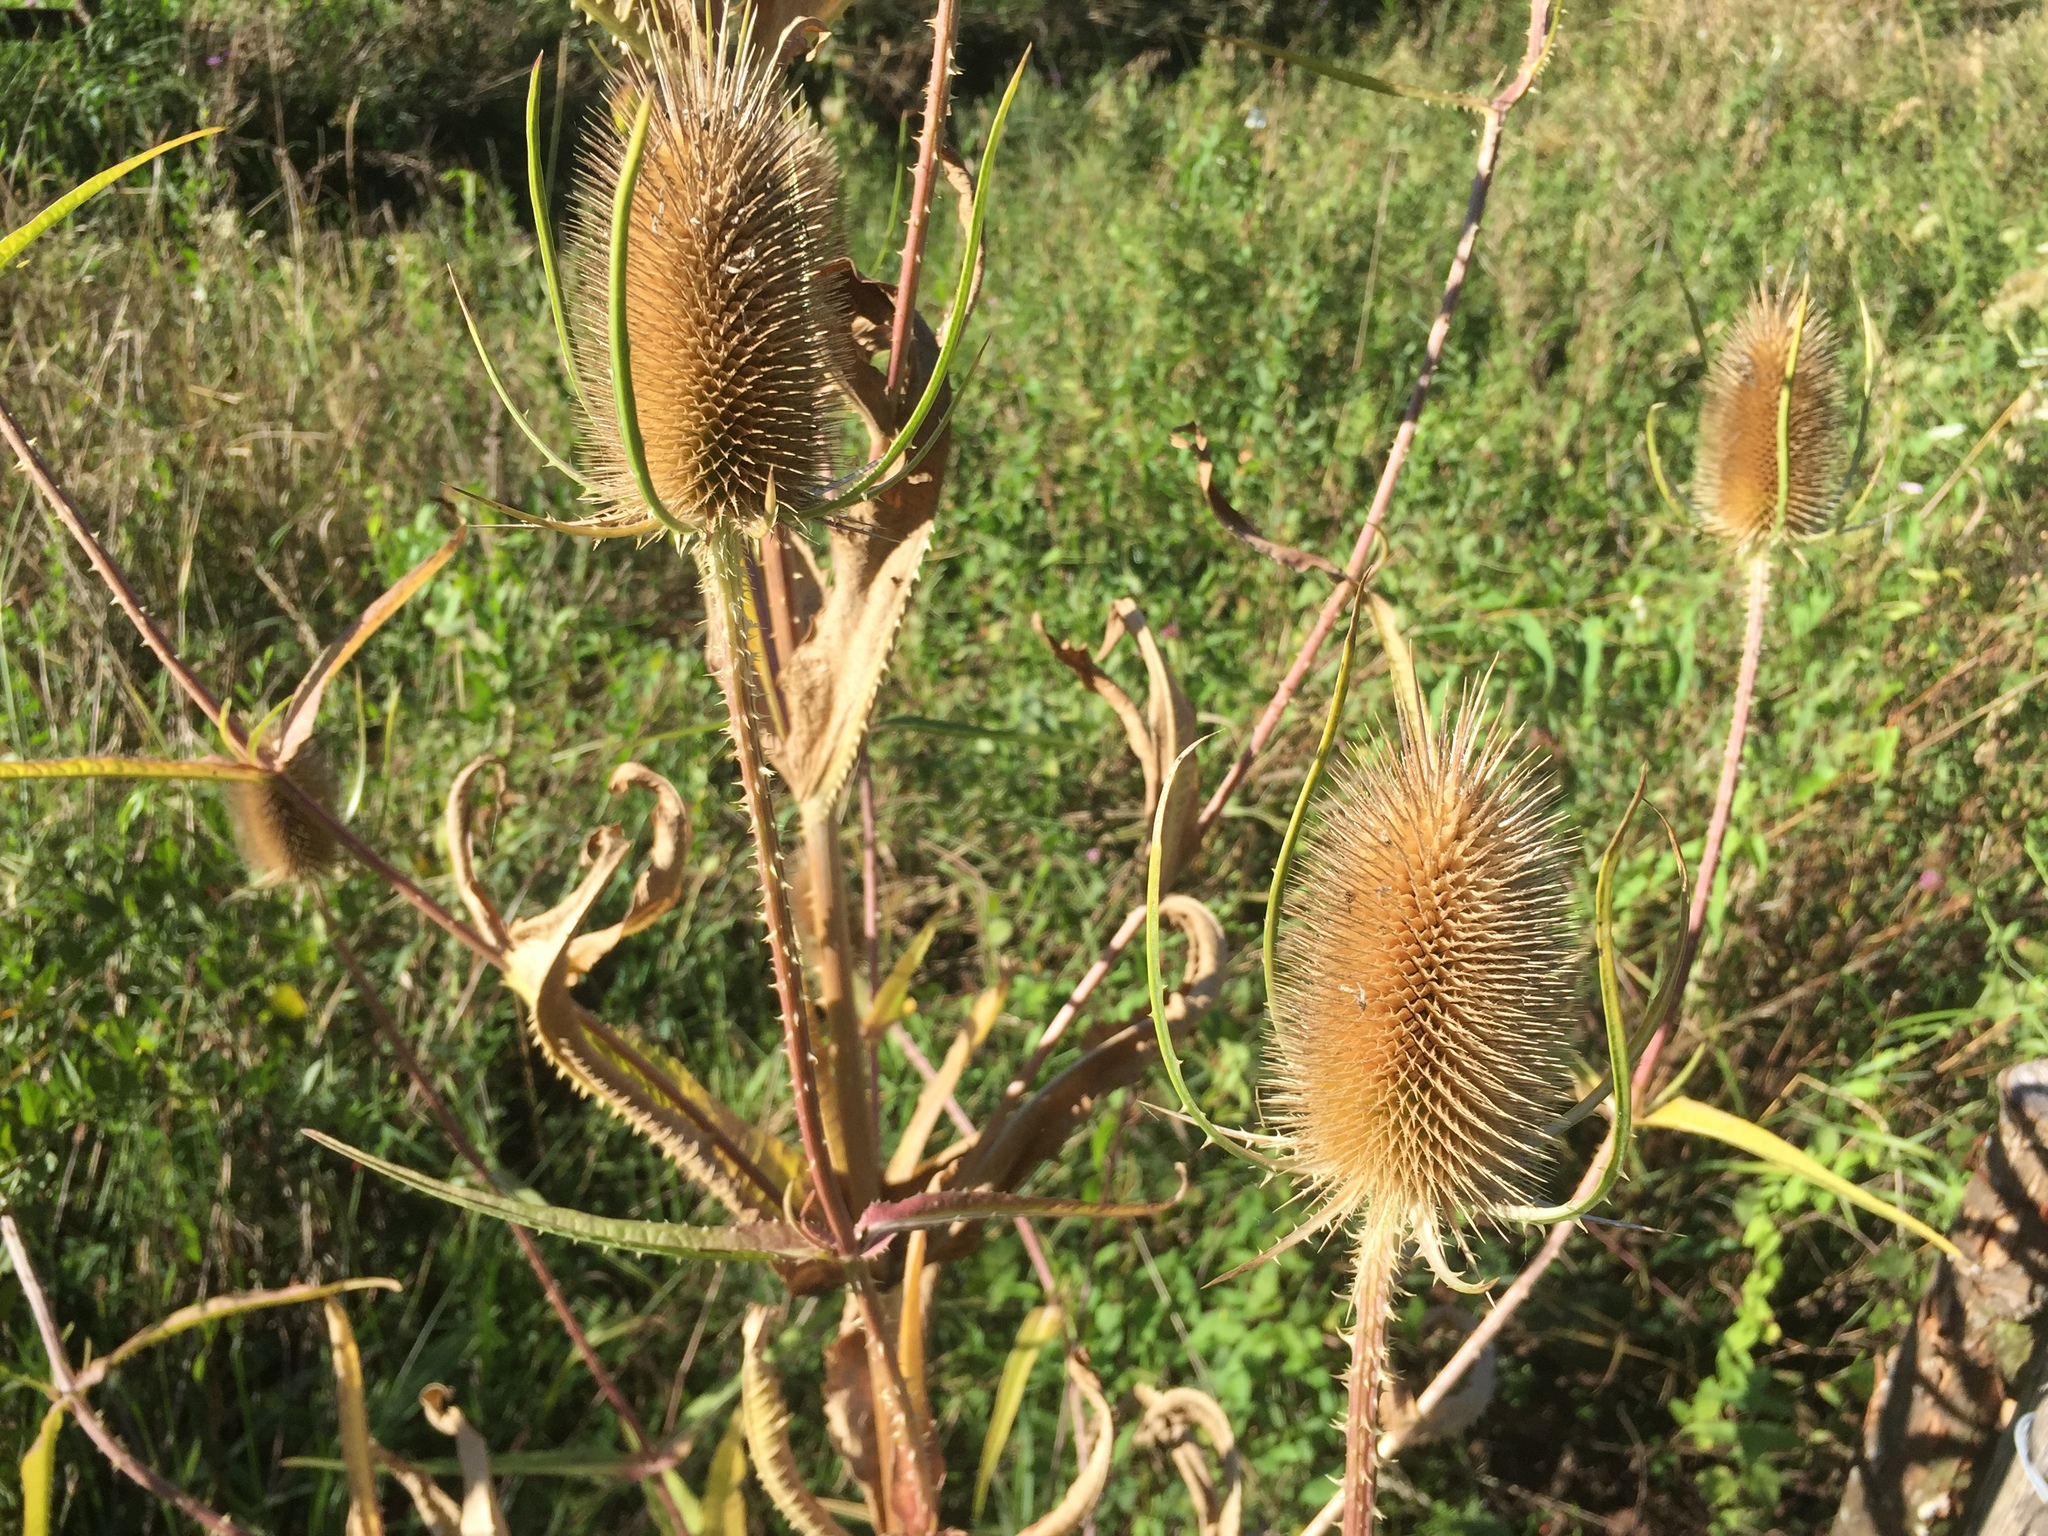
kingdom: Plantae
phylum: Tracheophyta
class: Magnoliopsida
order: Dipsacales
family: Caprifoliaceae
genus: Dipsacus
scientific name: Dipsacus fullonum
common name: Teasel
